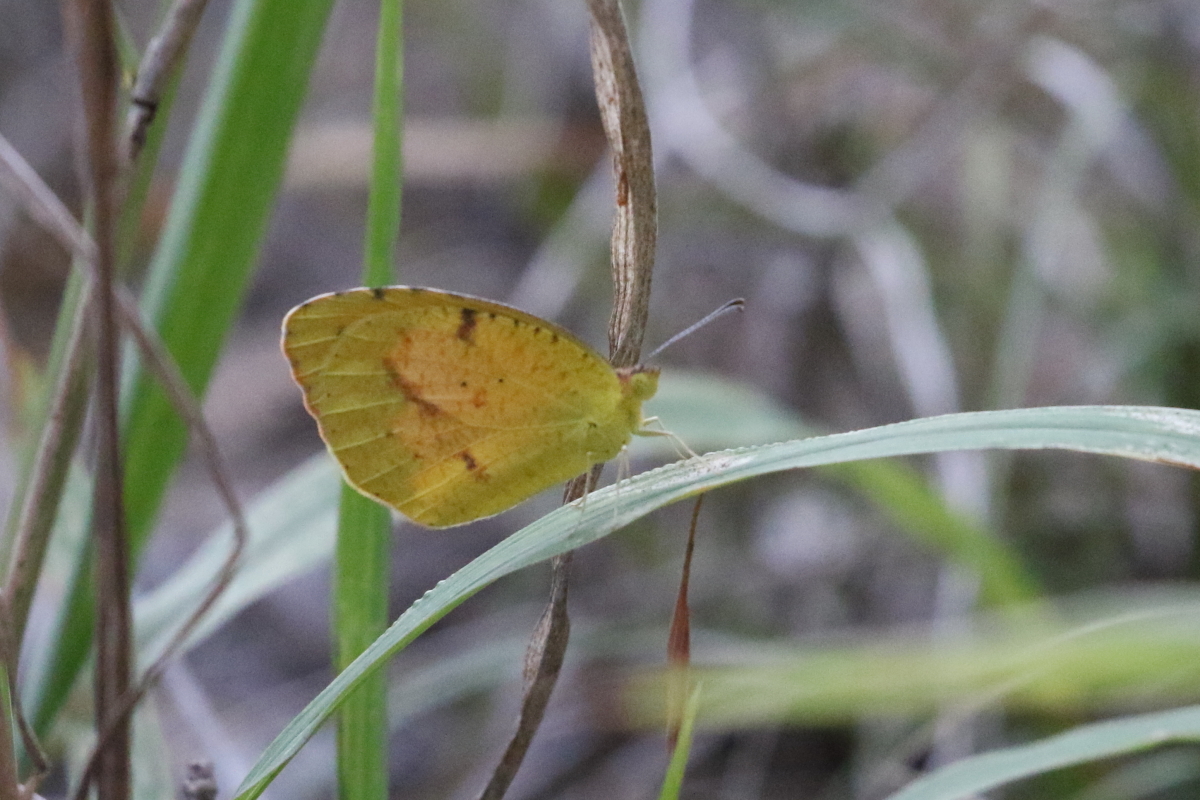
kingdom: Animalia
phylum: Arthropoda
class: Insecta
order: Lepidoptera
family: Pieridae
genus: Abaeis
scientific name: Abaeis nicippe
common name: Sleepy orange
